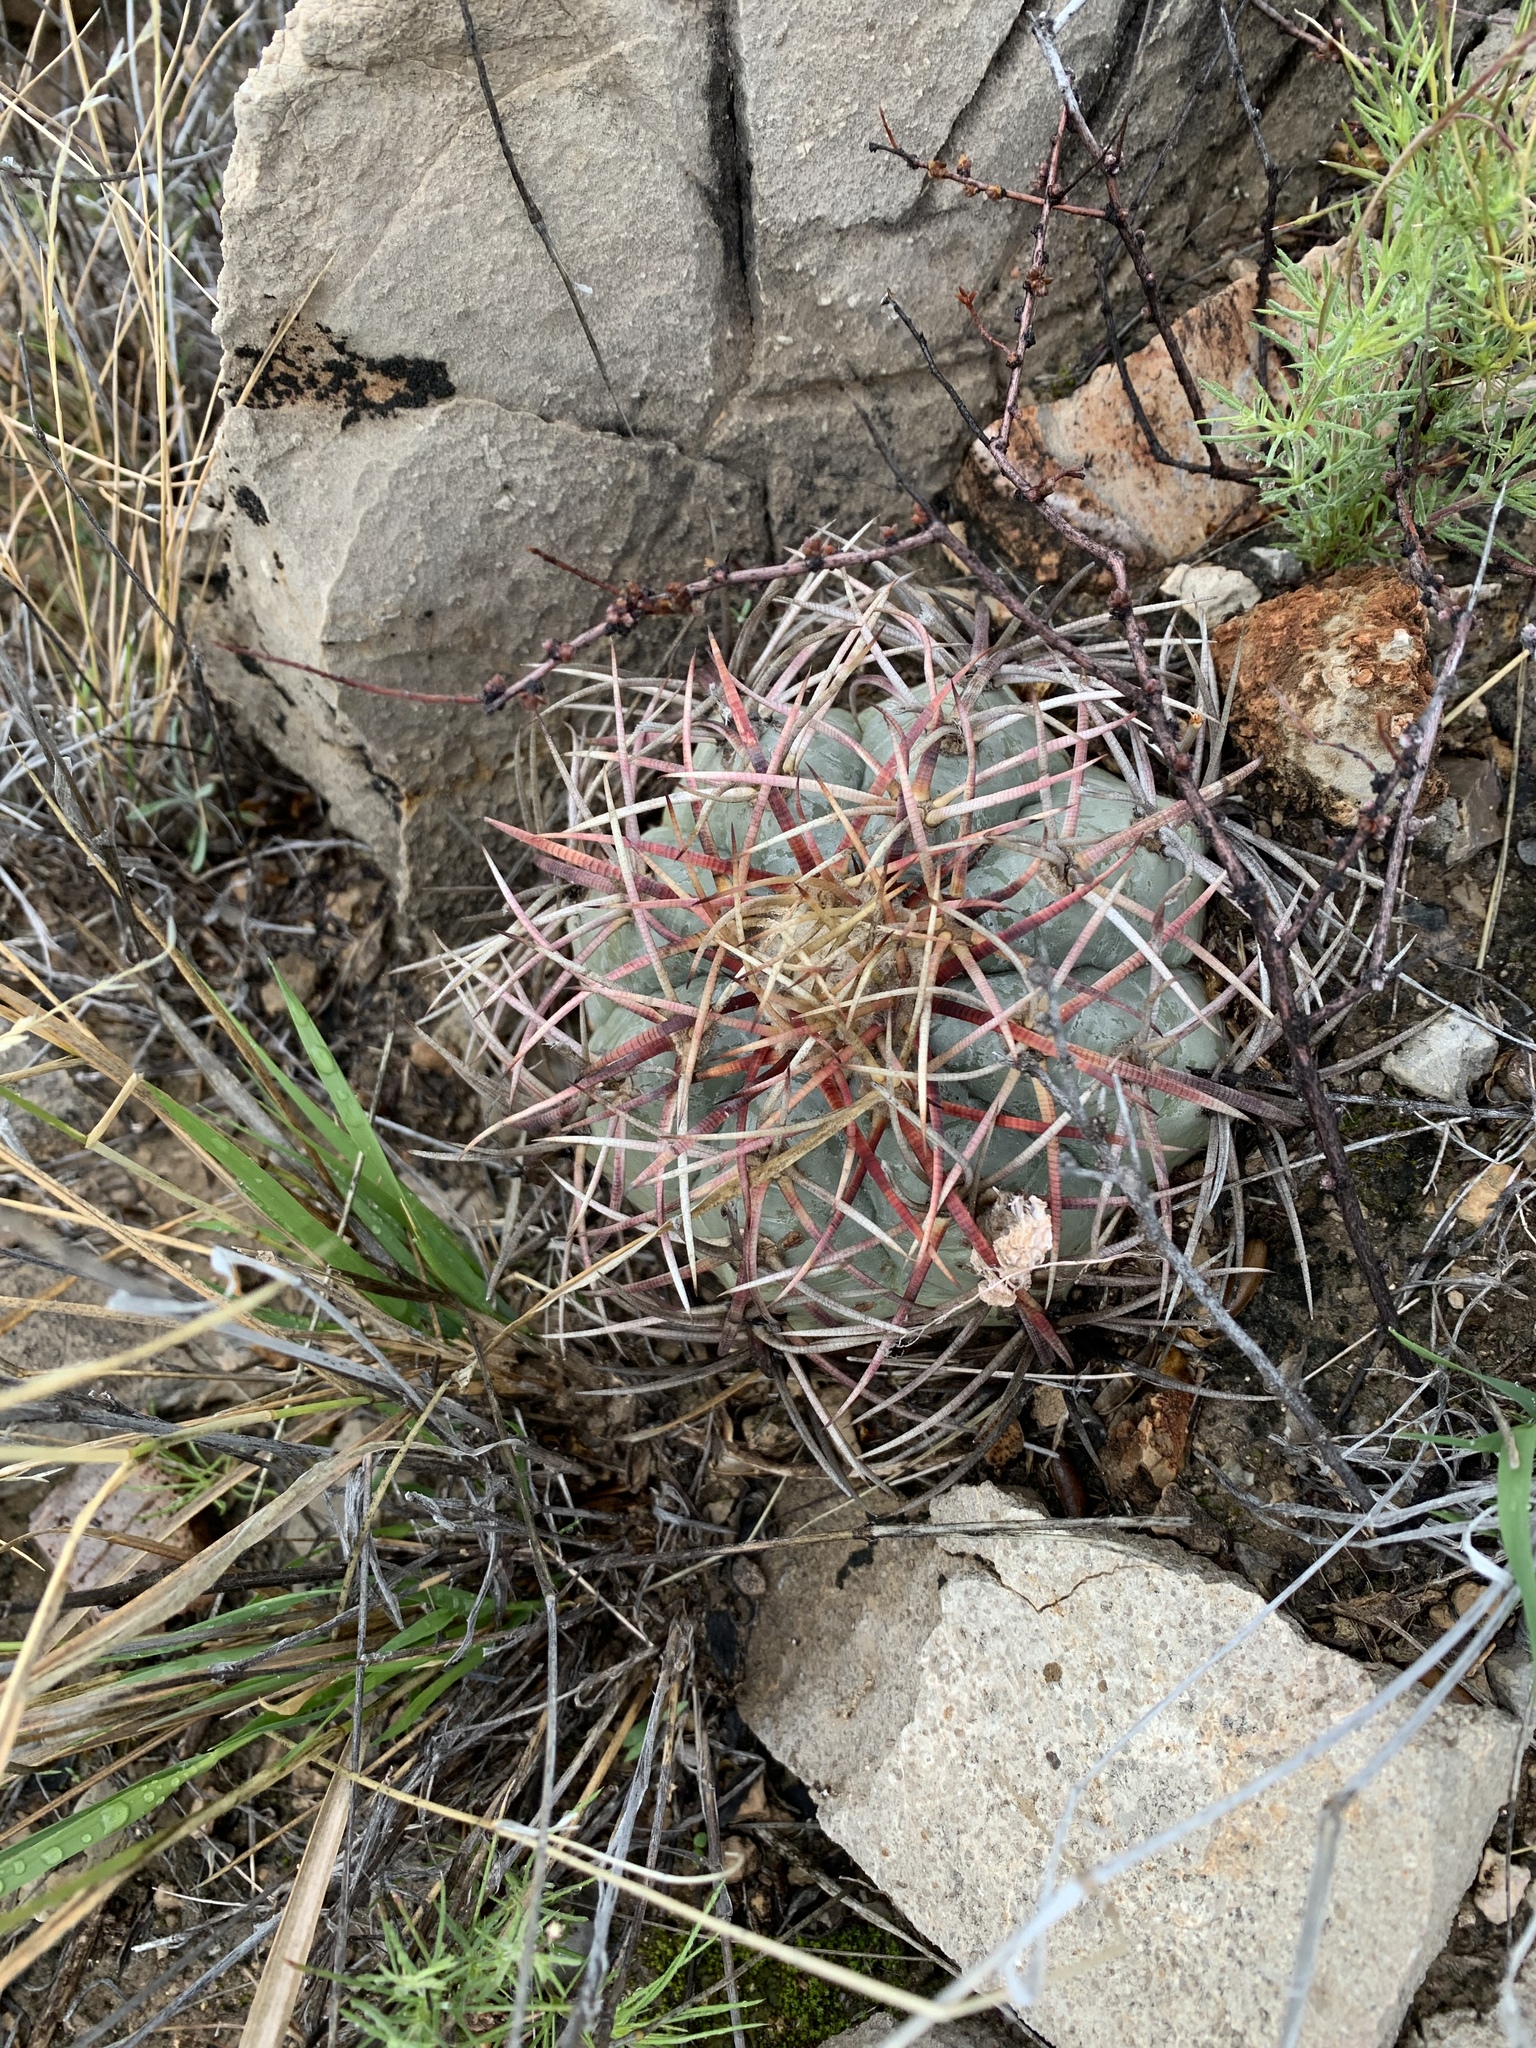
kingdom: Plantae
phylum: Tracheophyta
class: Magnoliopsida
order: Caryophyllales
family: Cactaceae
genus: Echinocactus
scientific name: Echinocactus horizonthalonius
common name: Devilshead
